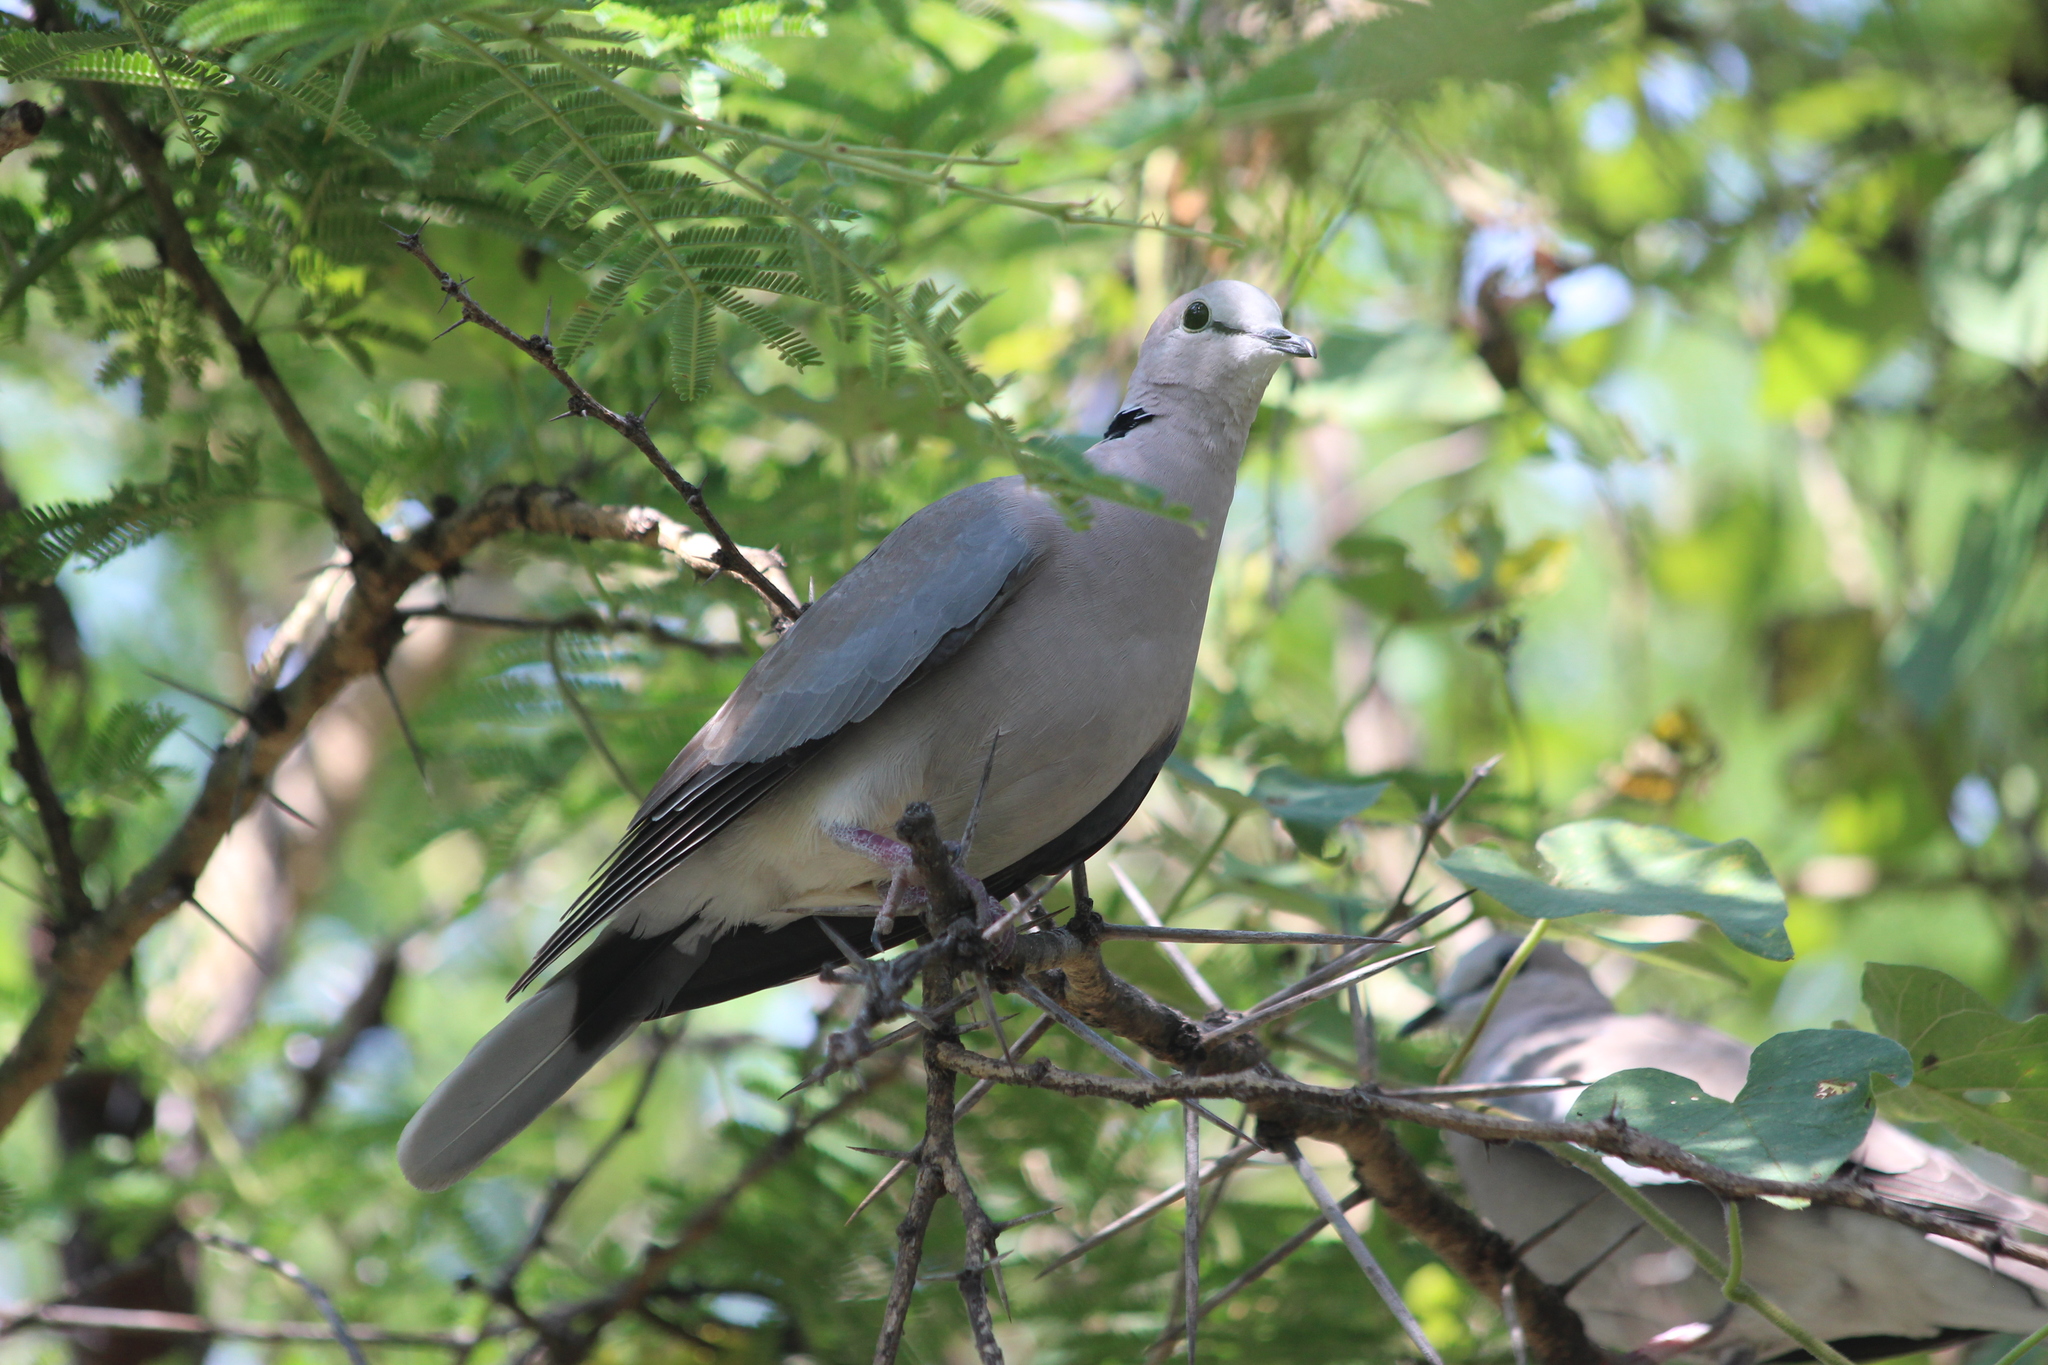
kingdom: Animalia
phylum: Chordata
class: Aves
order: Columbiformes
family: Columbidae
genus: Streptopelia
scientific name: Streptopelia capicola
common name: Ring-necked dove
